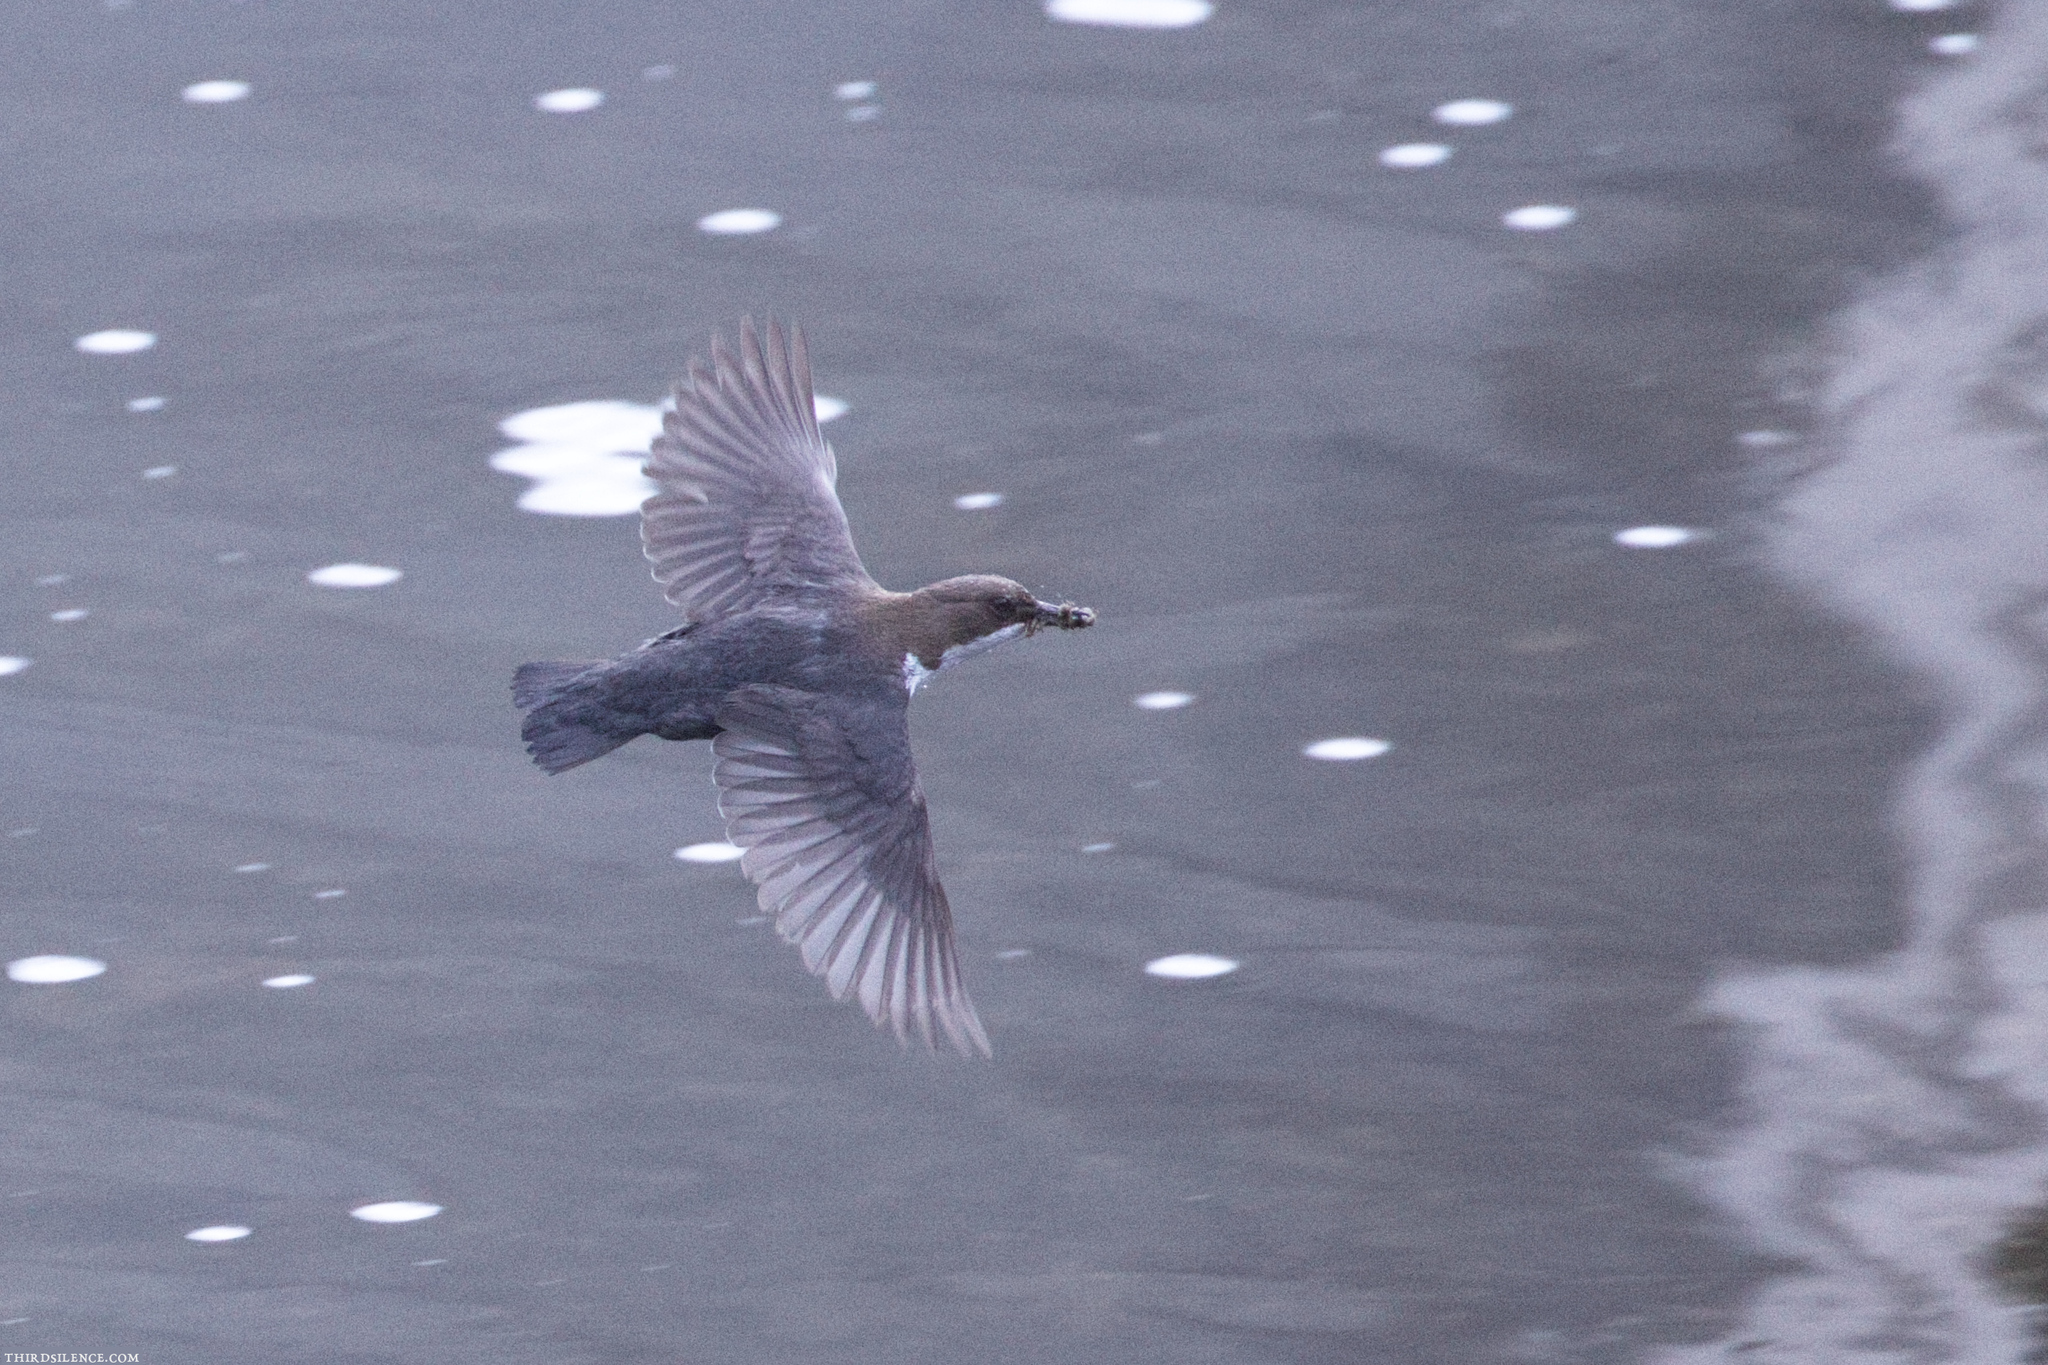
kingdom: Animalia
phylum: Chordata
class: Aves
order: Passeriformes
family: Cinclidae
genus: Cinclus
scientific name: Cinclus cinclus
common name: White-throated dipper
